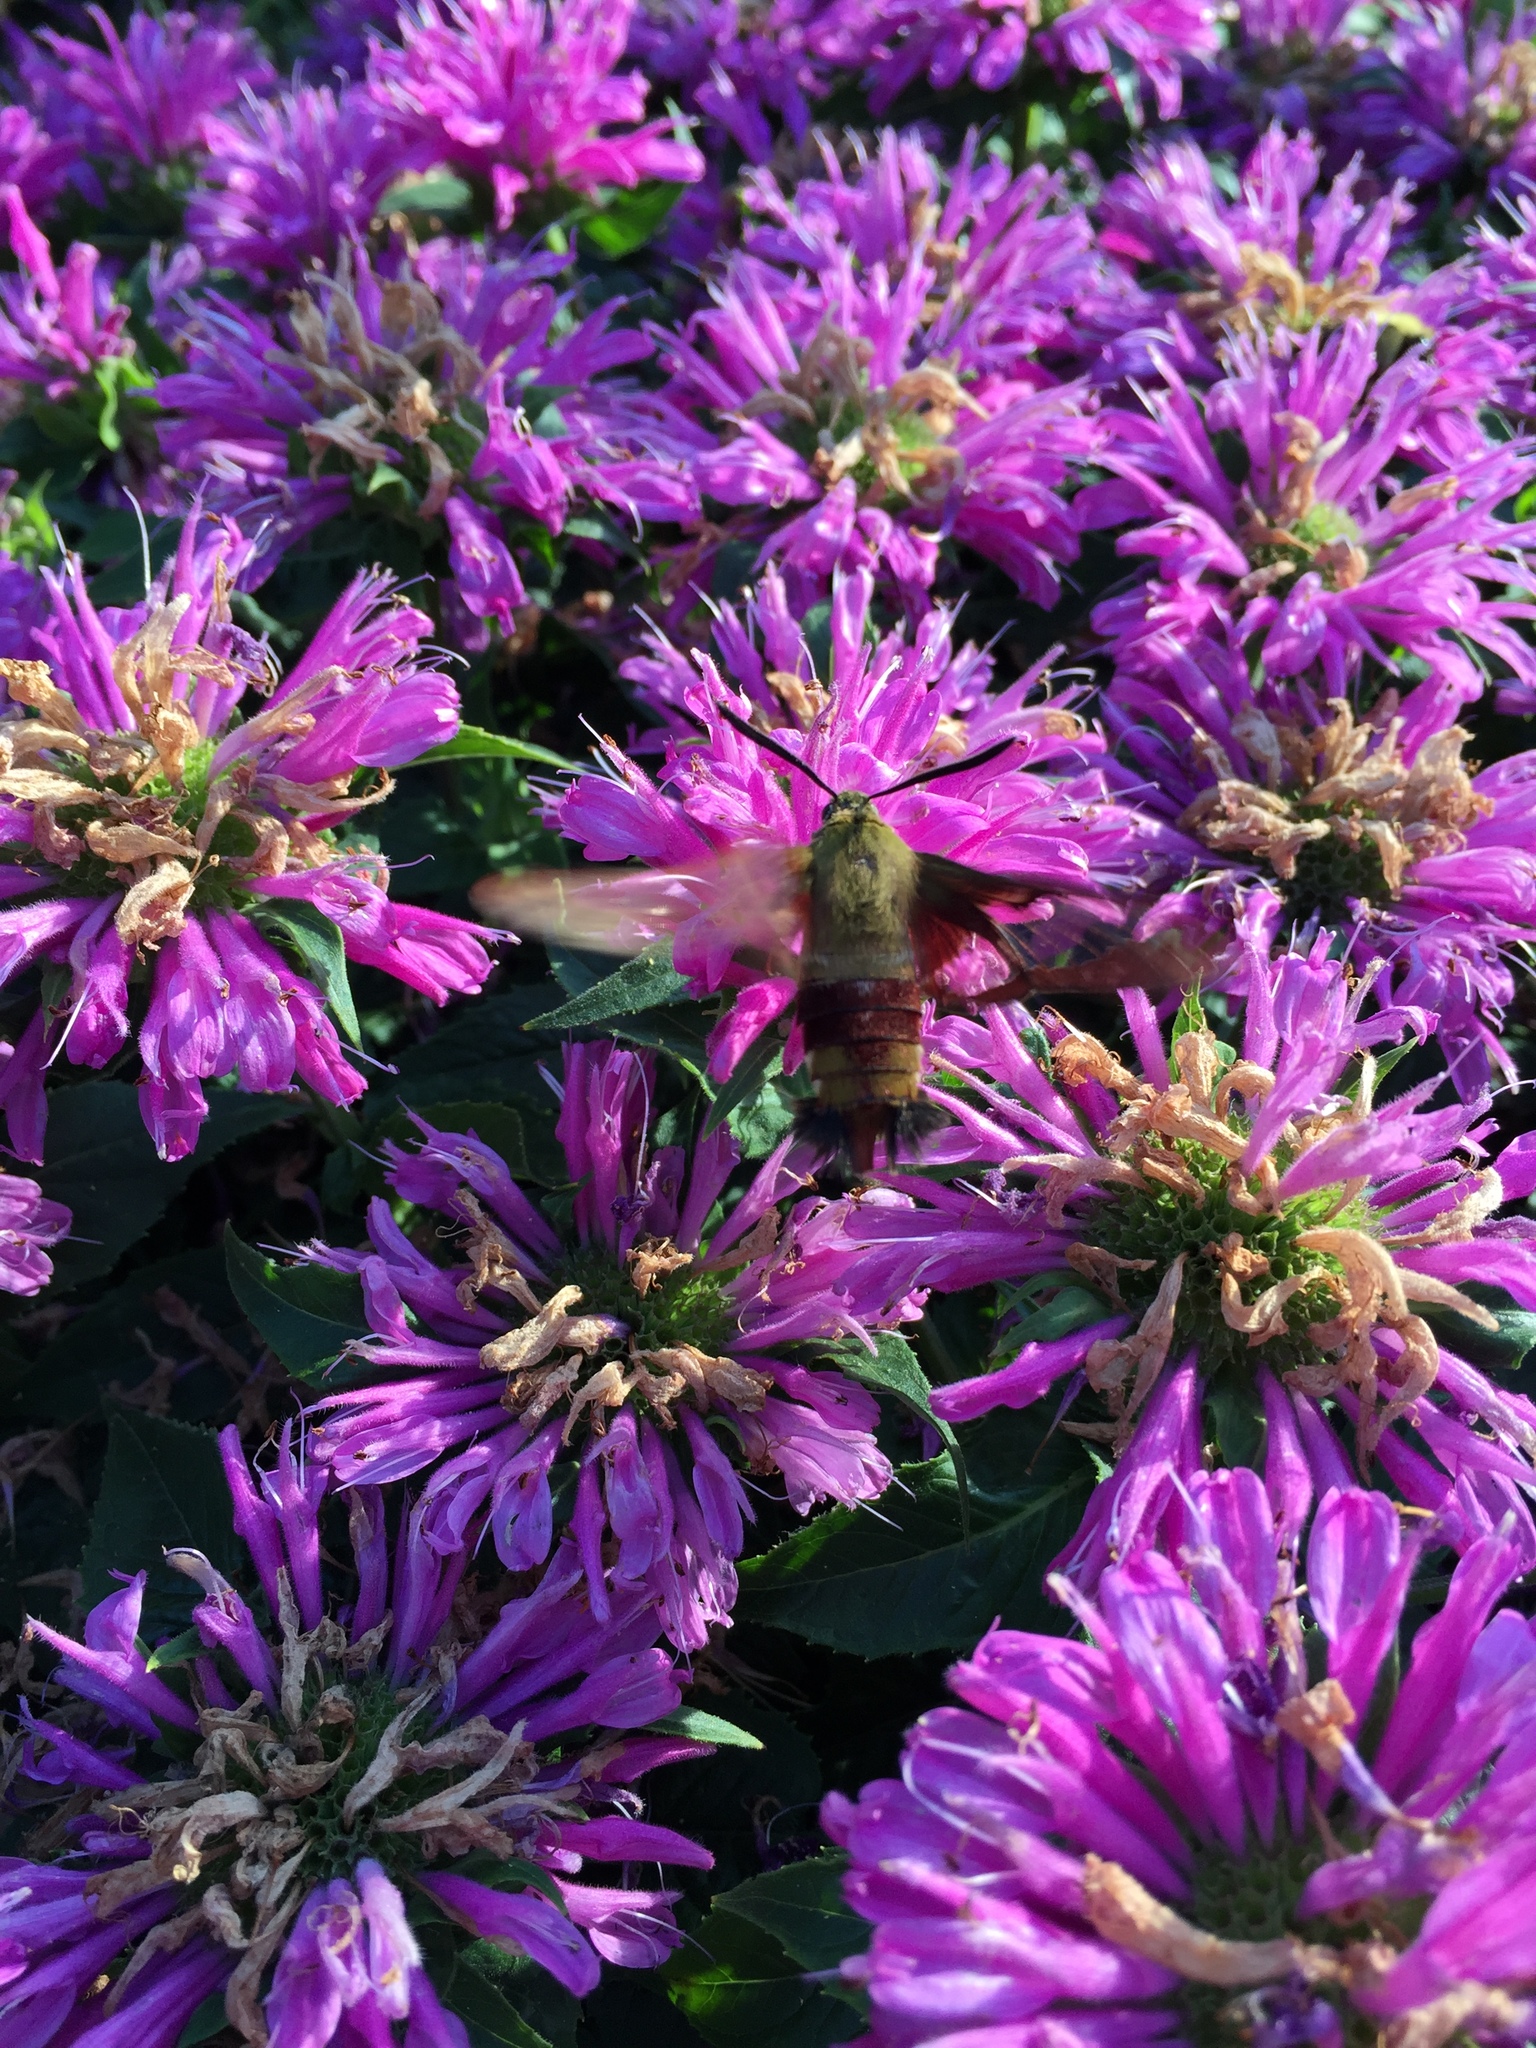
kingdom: Animalia
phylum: Arthropoda
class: Insecta
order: Lepidoptera
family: Sphingidae
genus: Hemaris
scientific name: Hemaris thysbe
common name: Common clear-wing
